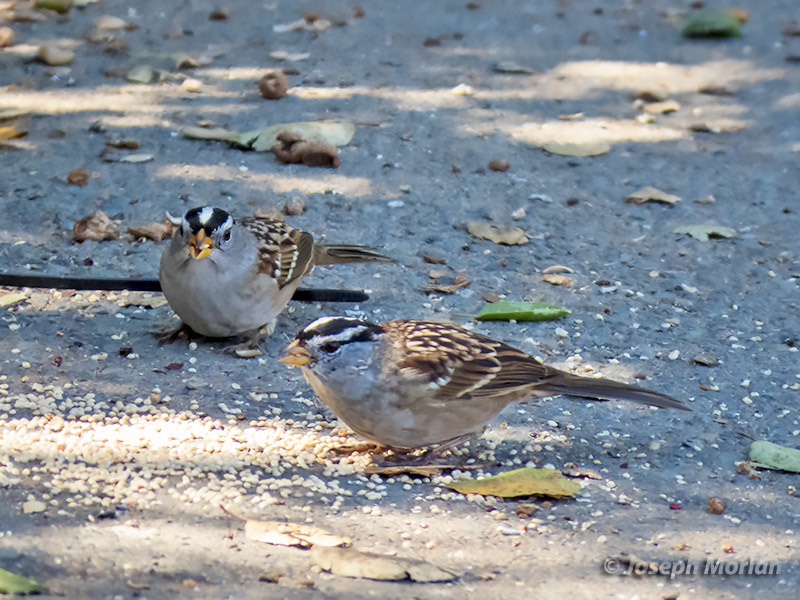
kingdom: Animalia
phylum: Chordata
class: Aves
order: Passeriformes
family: Passerellidae
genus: Zonotrichia
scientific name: Zonotrichia leucophrys
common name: White-crowned sparrow
